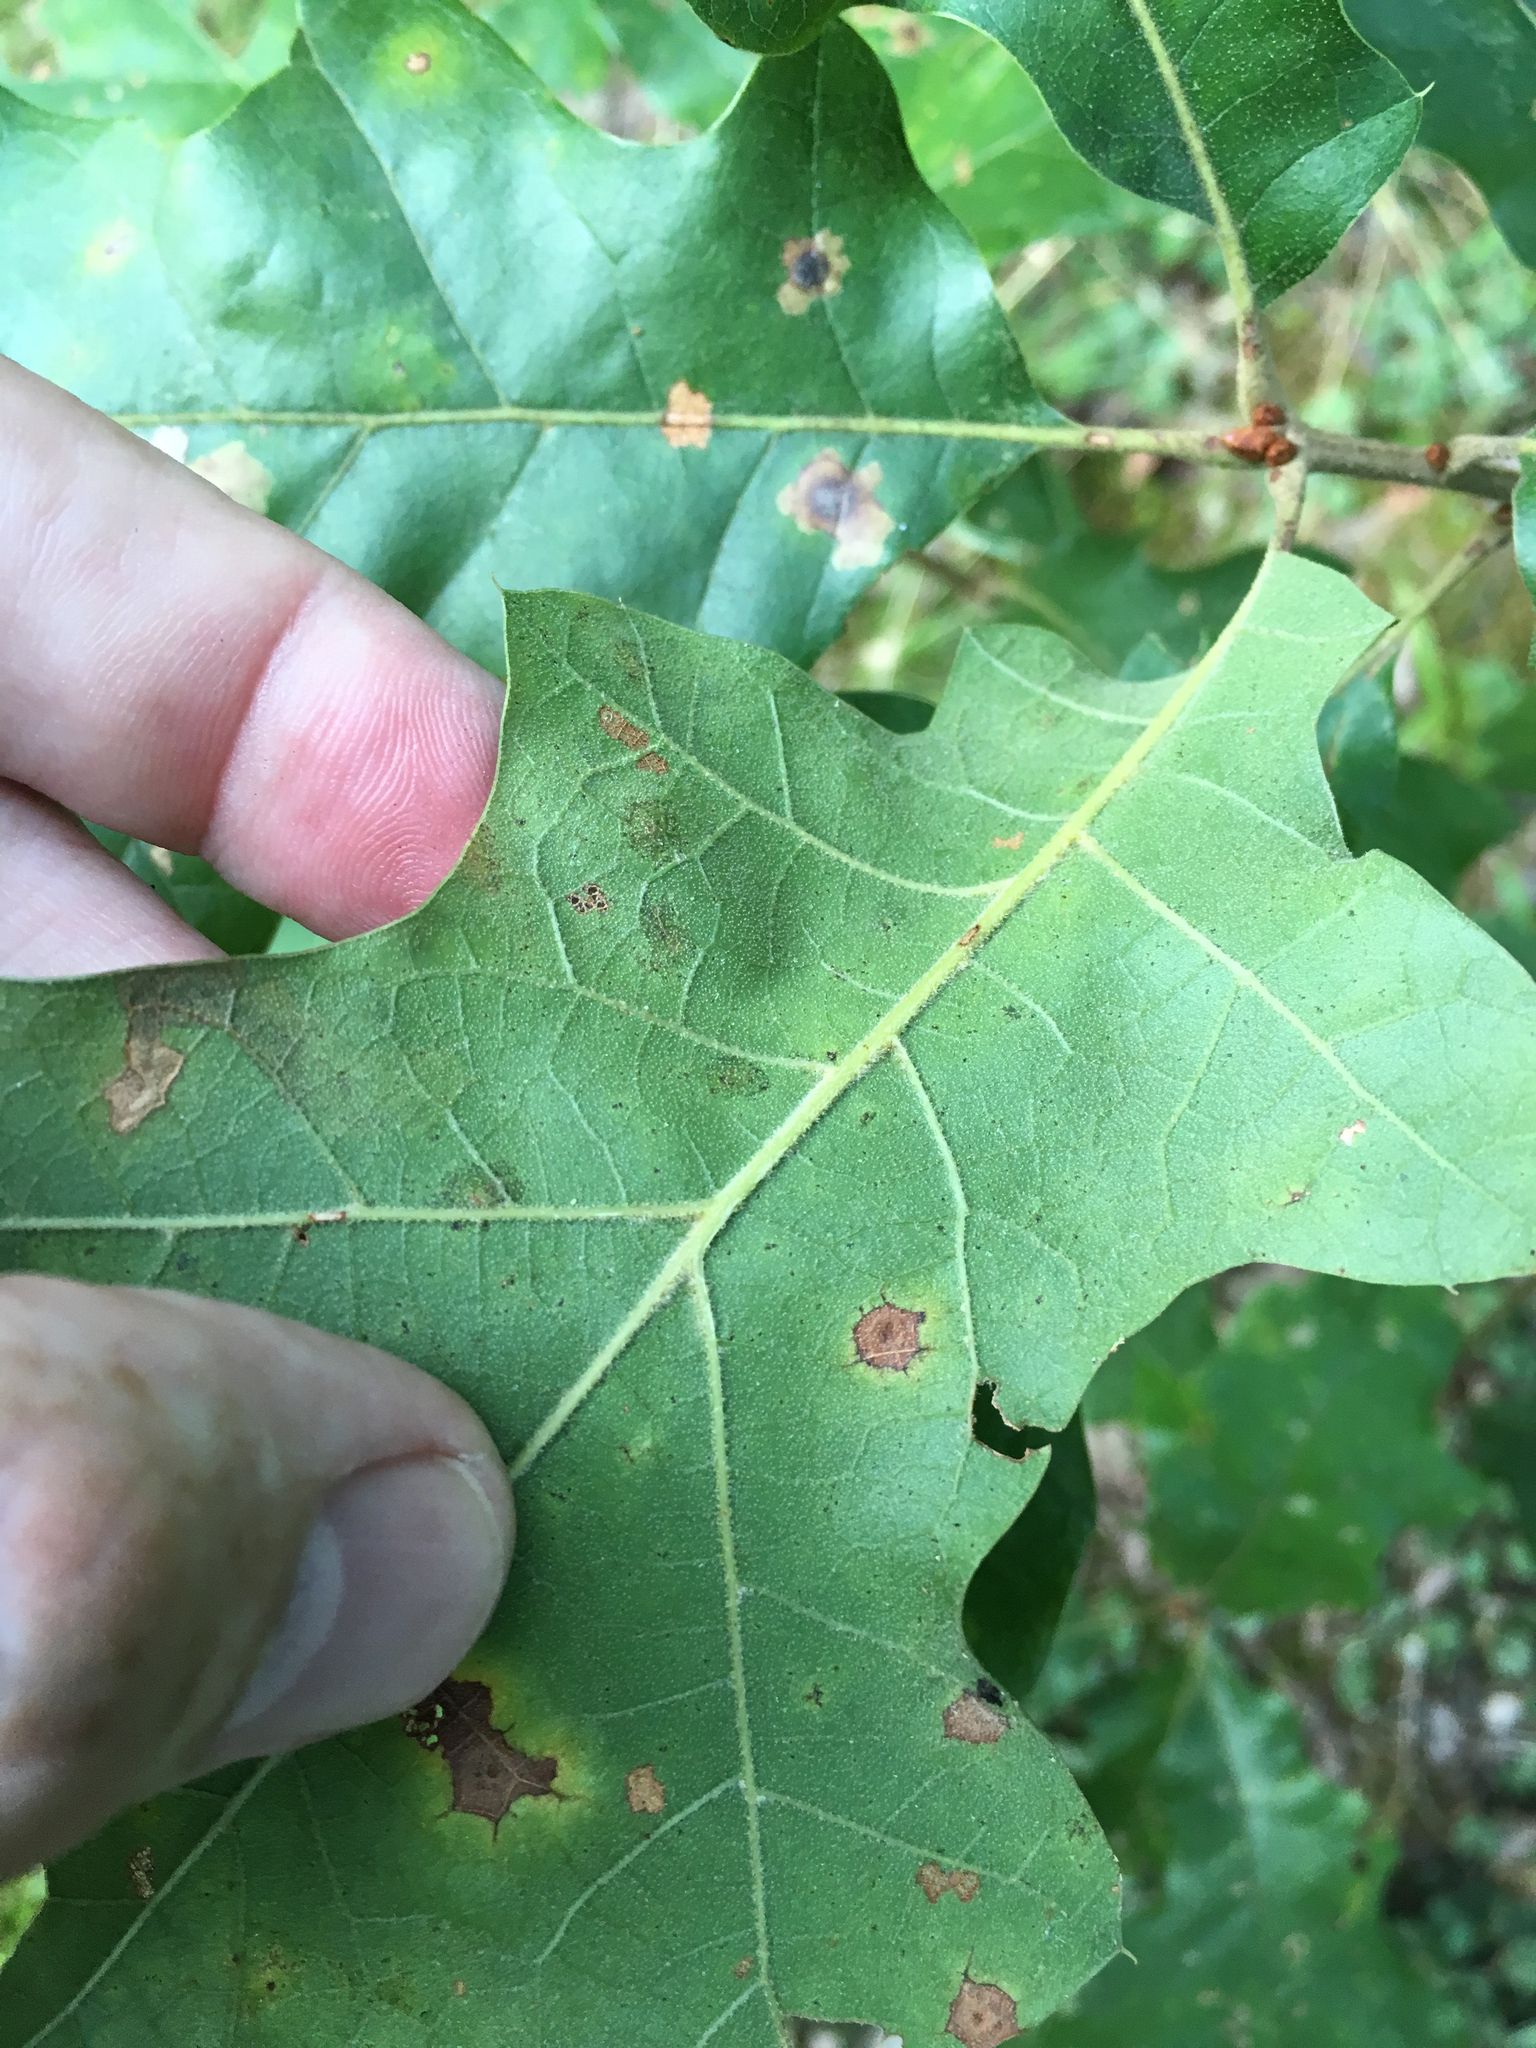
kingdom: Plantae
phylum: Tracheophyta
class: Magnoliopsida
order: Fagales
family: Fagaceae
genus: Quercus
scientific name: Quercus velutina
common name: Black oak
